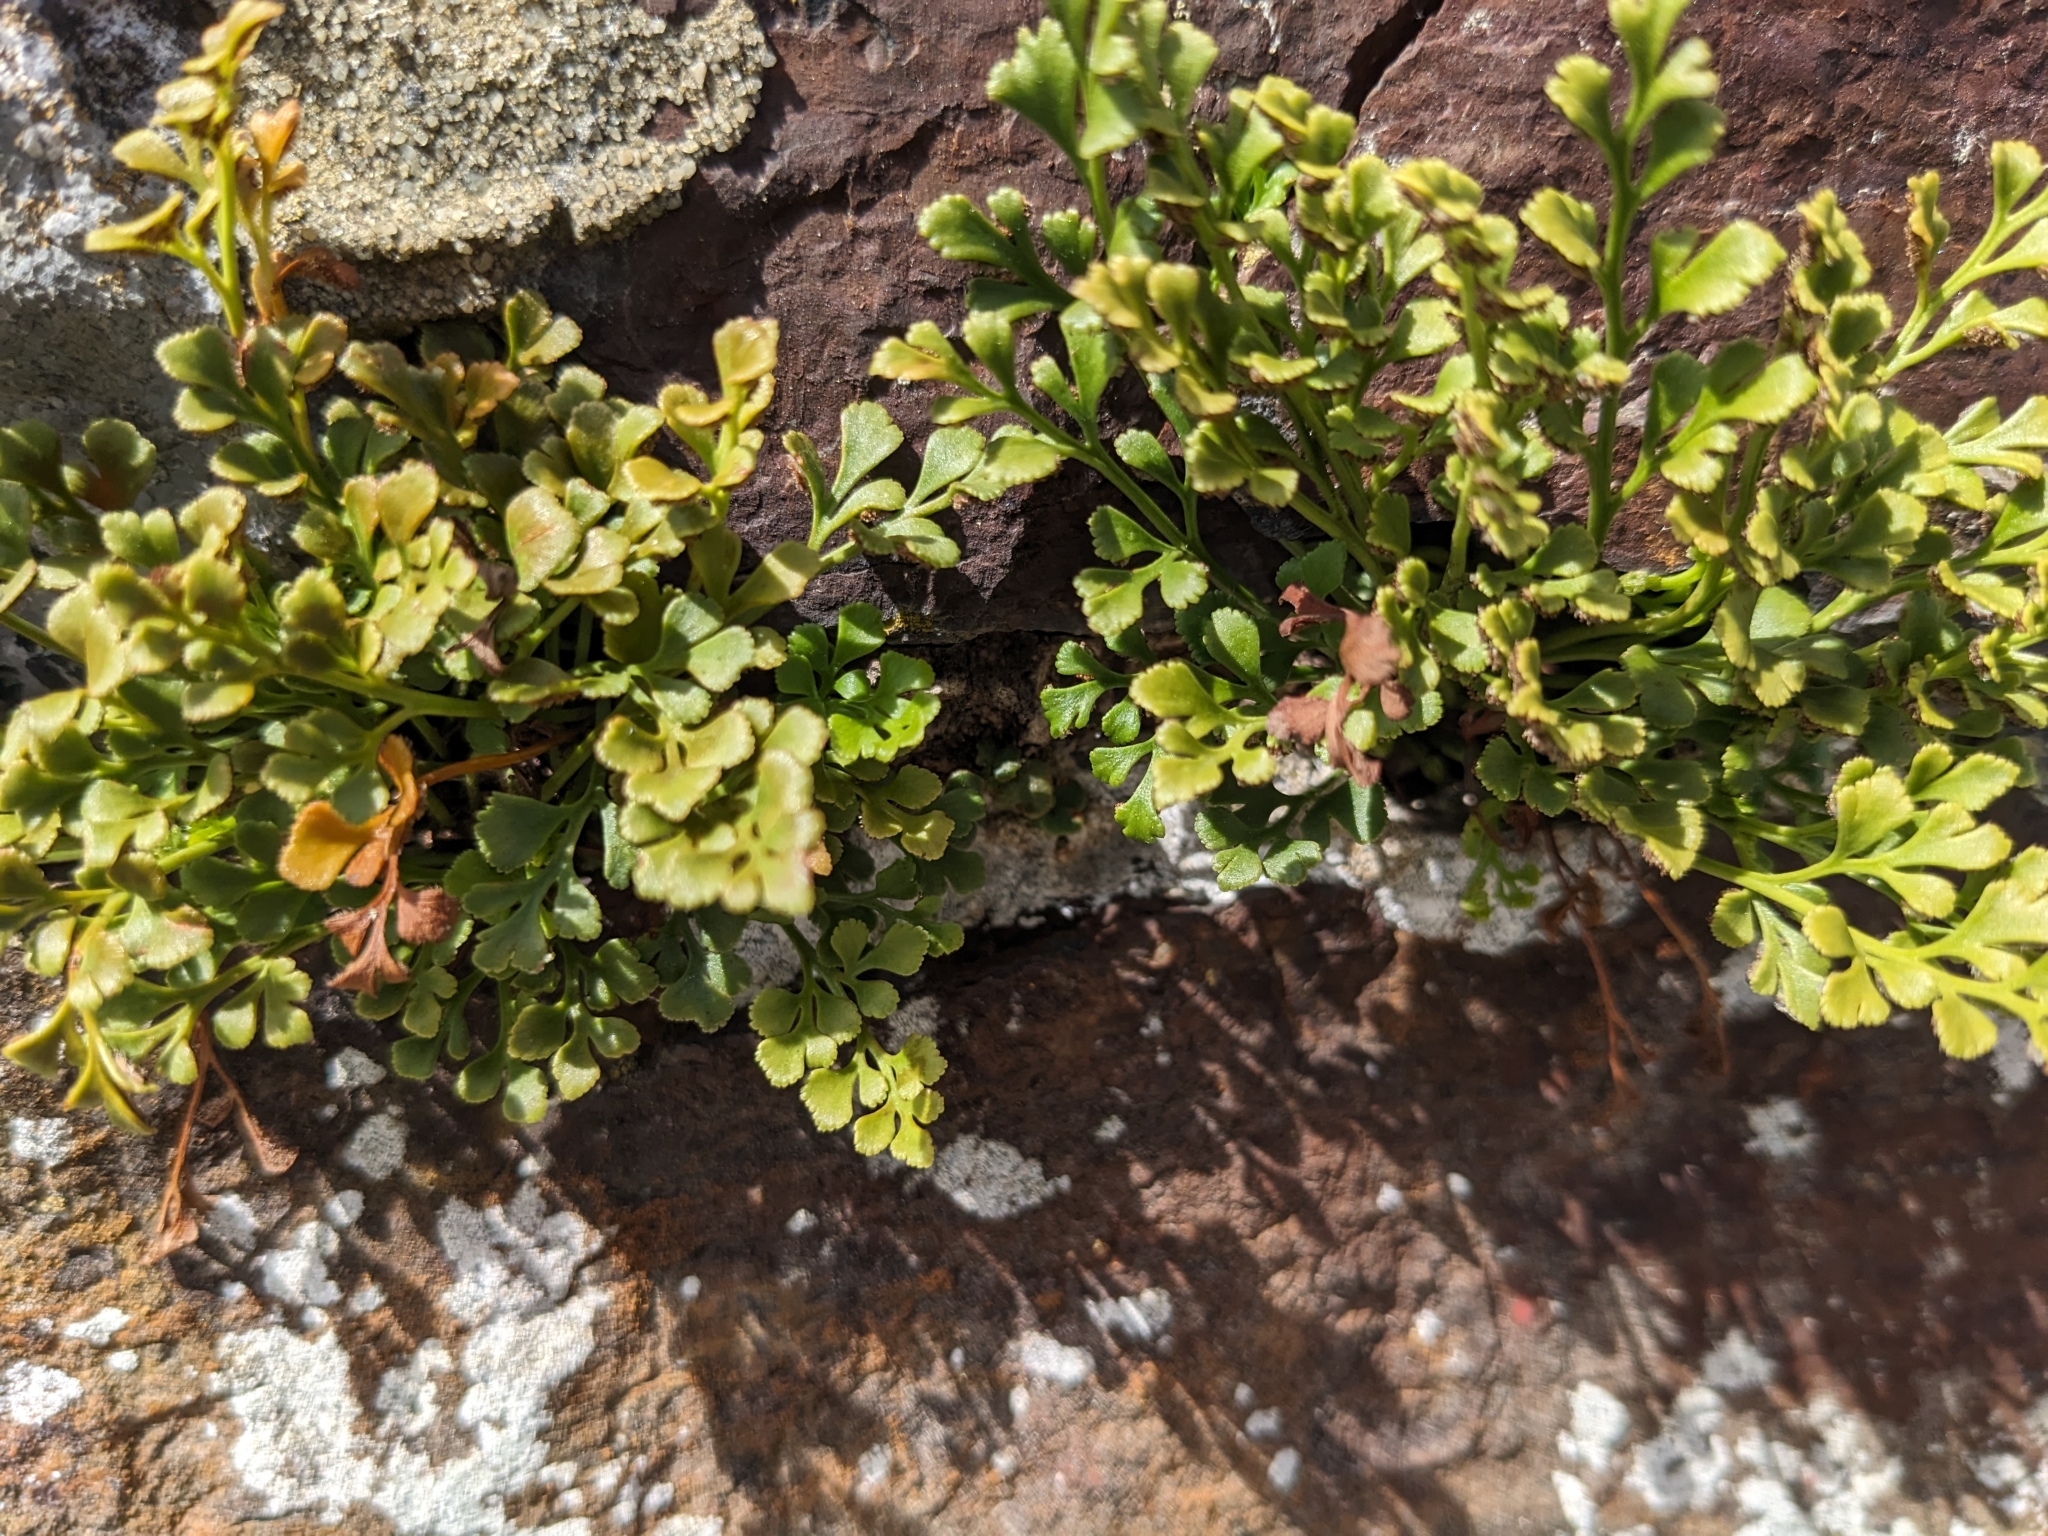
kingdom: Plantae
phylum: Tracheophyta
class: Polypodiopsida
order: Polypodiales
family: Aspleniaceae
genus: Asplenium
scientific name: Asplenium ruta-muraria
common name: Wall-rue
